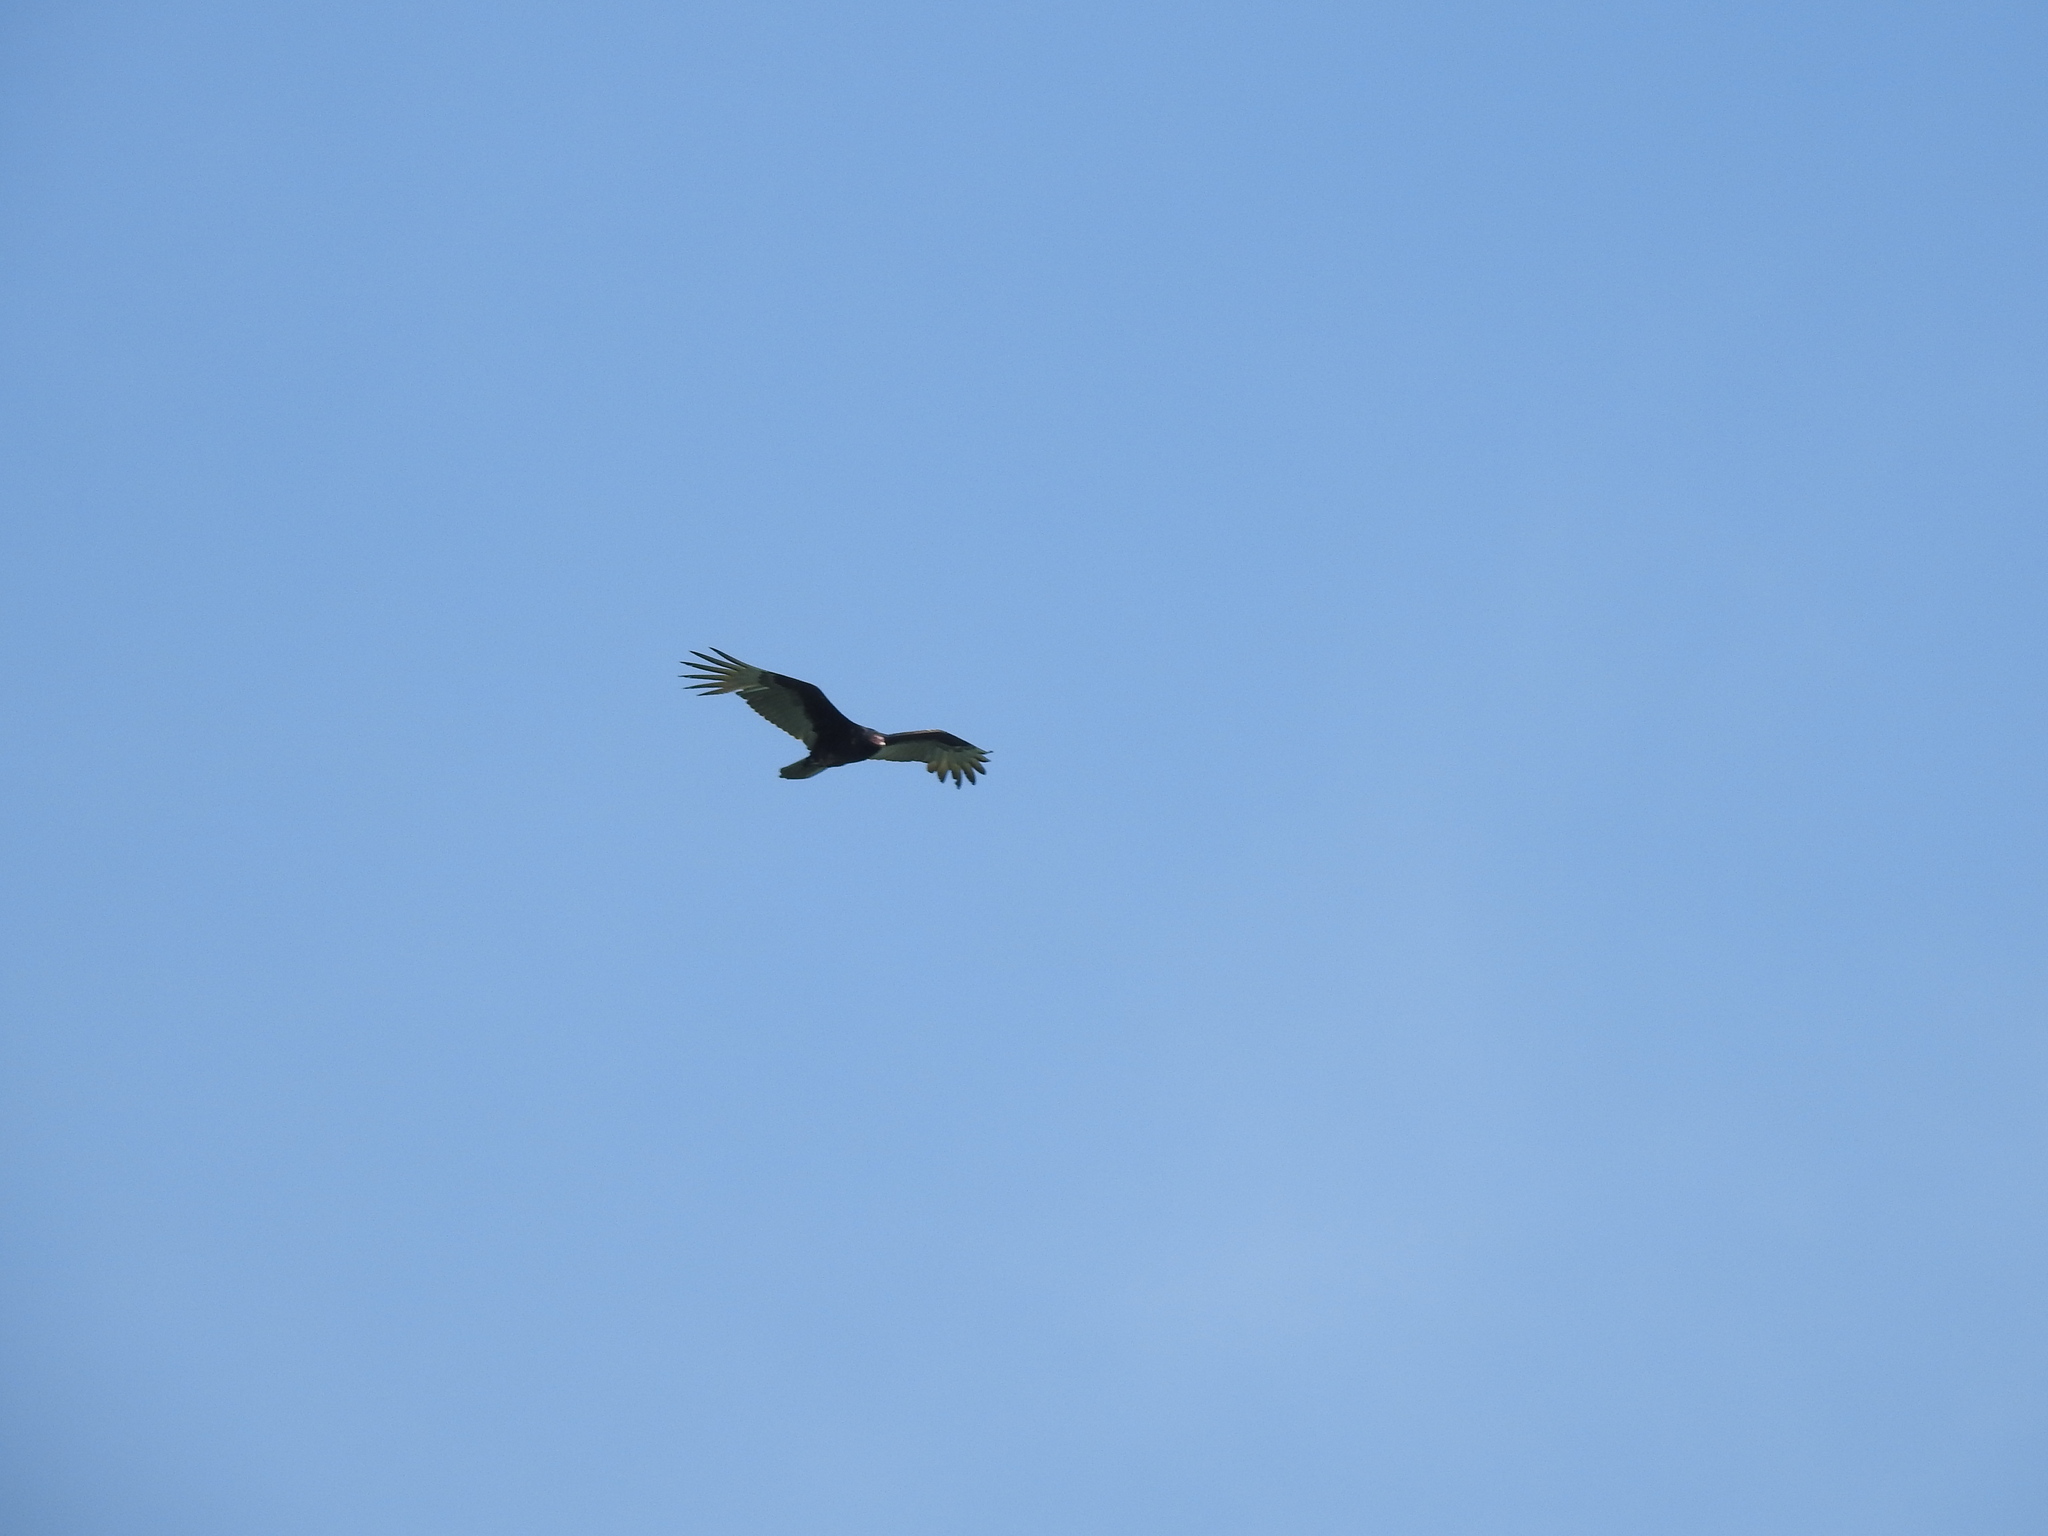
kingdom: Animalia
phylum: Chordata
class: Aves
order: Accipitriformes
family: Cathartidae
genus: Cathartes
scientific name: Cathartes aura
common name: Turkey vulture
